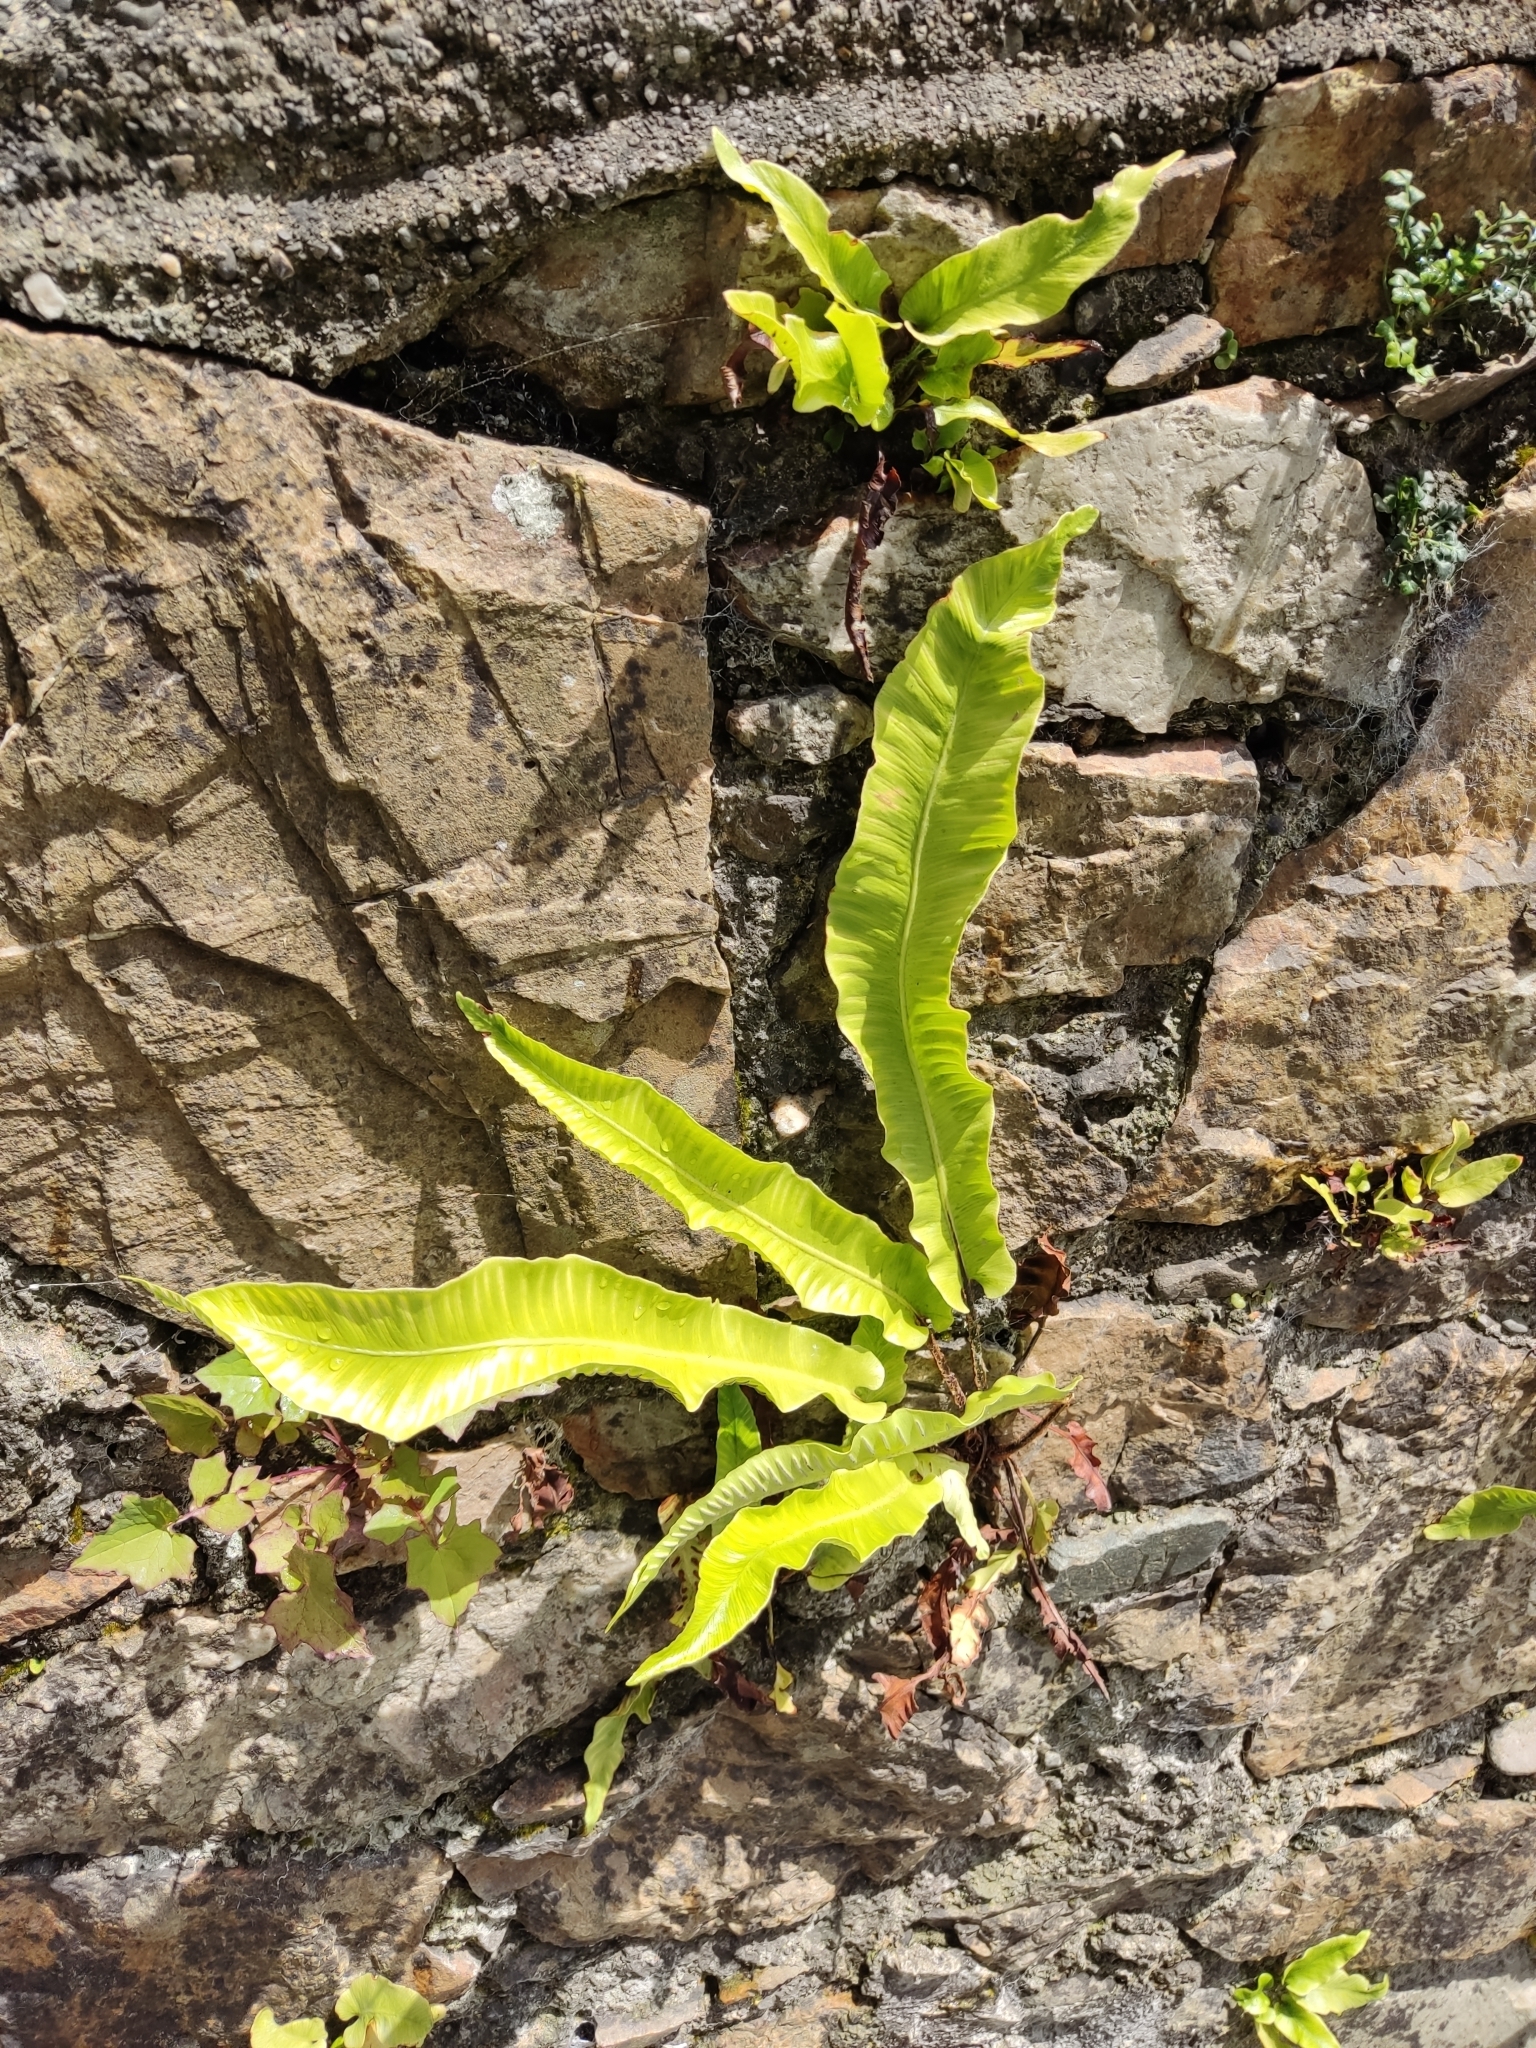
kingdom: Plantae
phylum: Tracheophyta
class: Polypodiopsida
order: Polypodiales
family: Aspleniaceae
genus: Asplenium
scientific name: Asplenium scolopendrium
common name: Hart's-tongue fern
